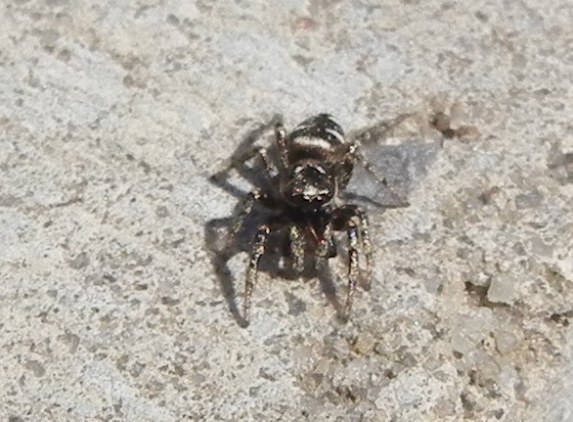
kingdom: Animalia
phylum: Arthropoda
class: Arachnida
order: Araneae
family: Salticidae
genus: Salticus
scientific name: Salticus scenicus
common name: Zebra jumper
